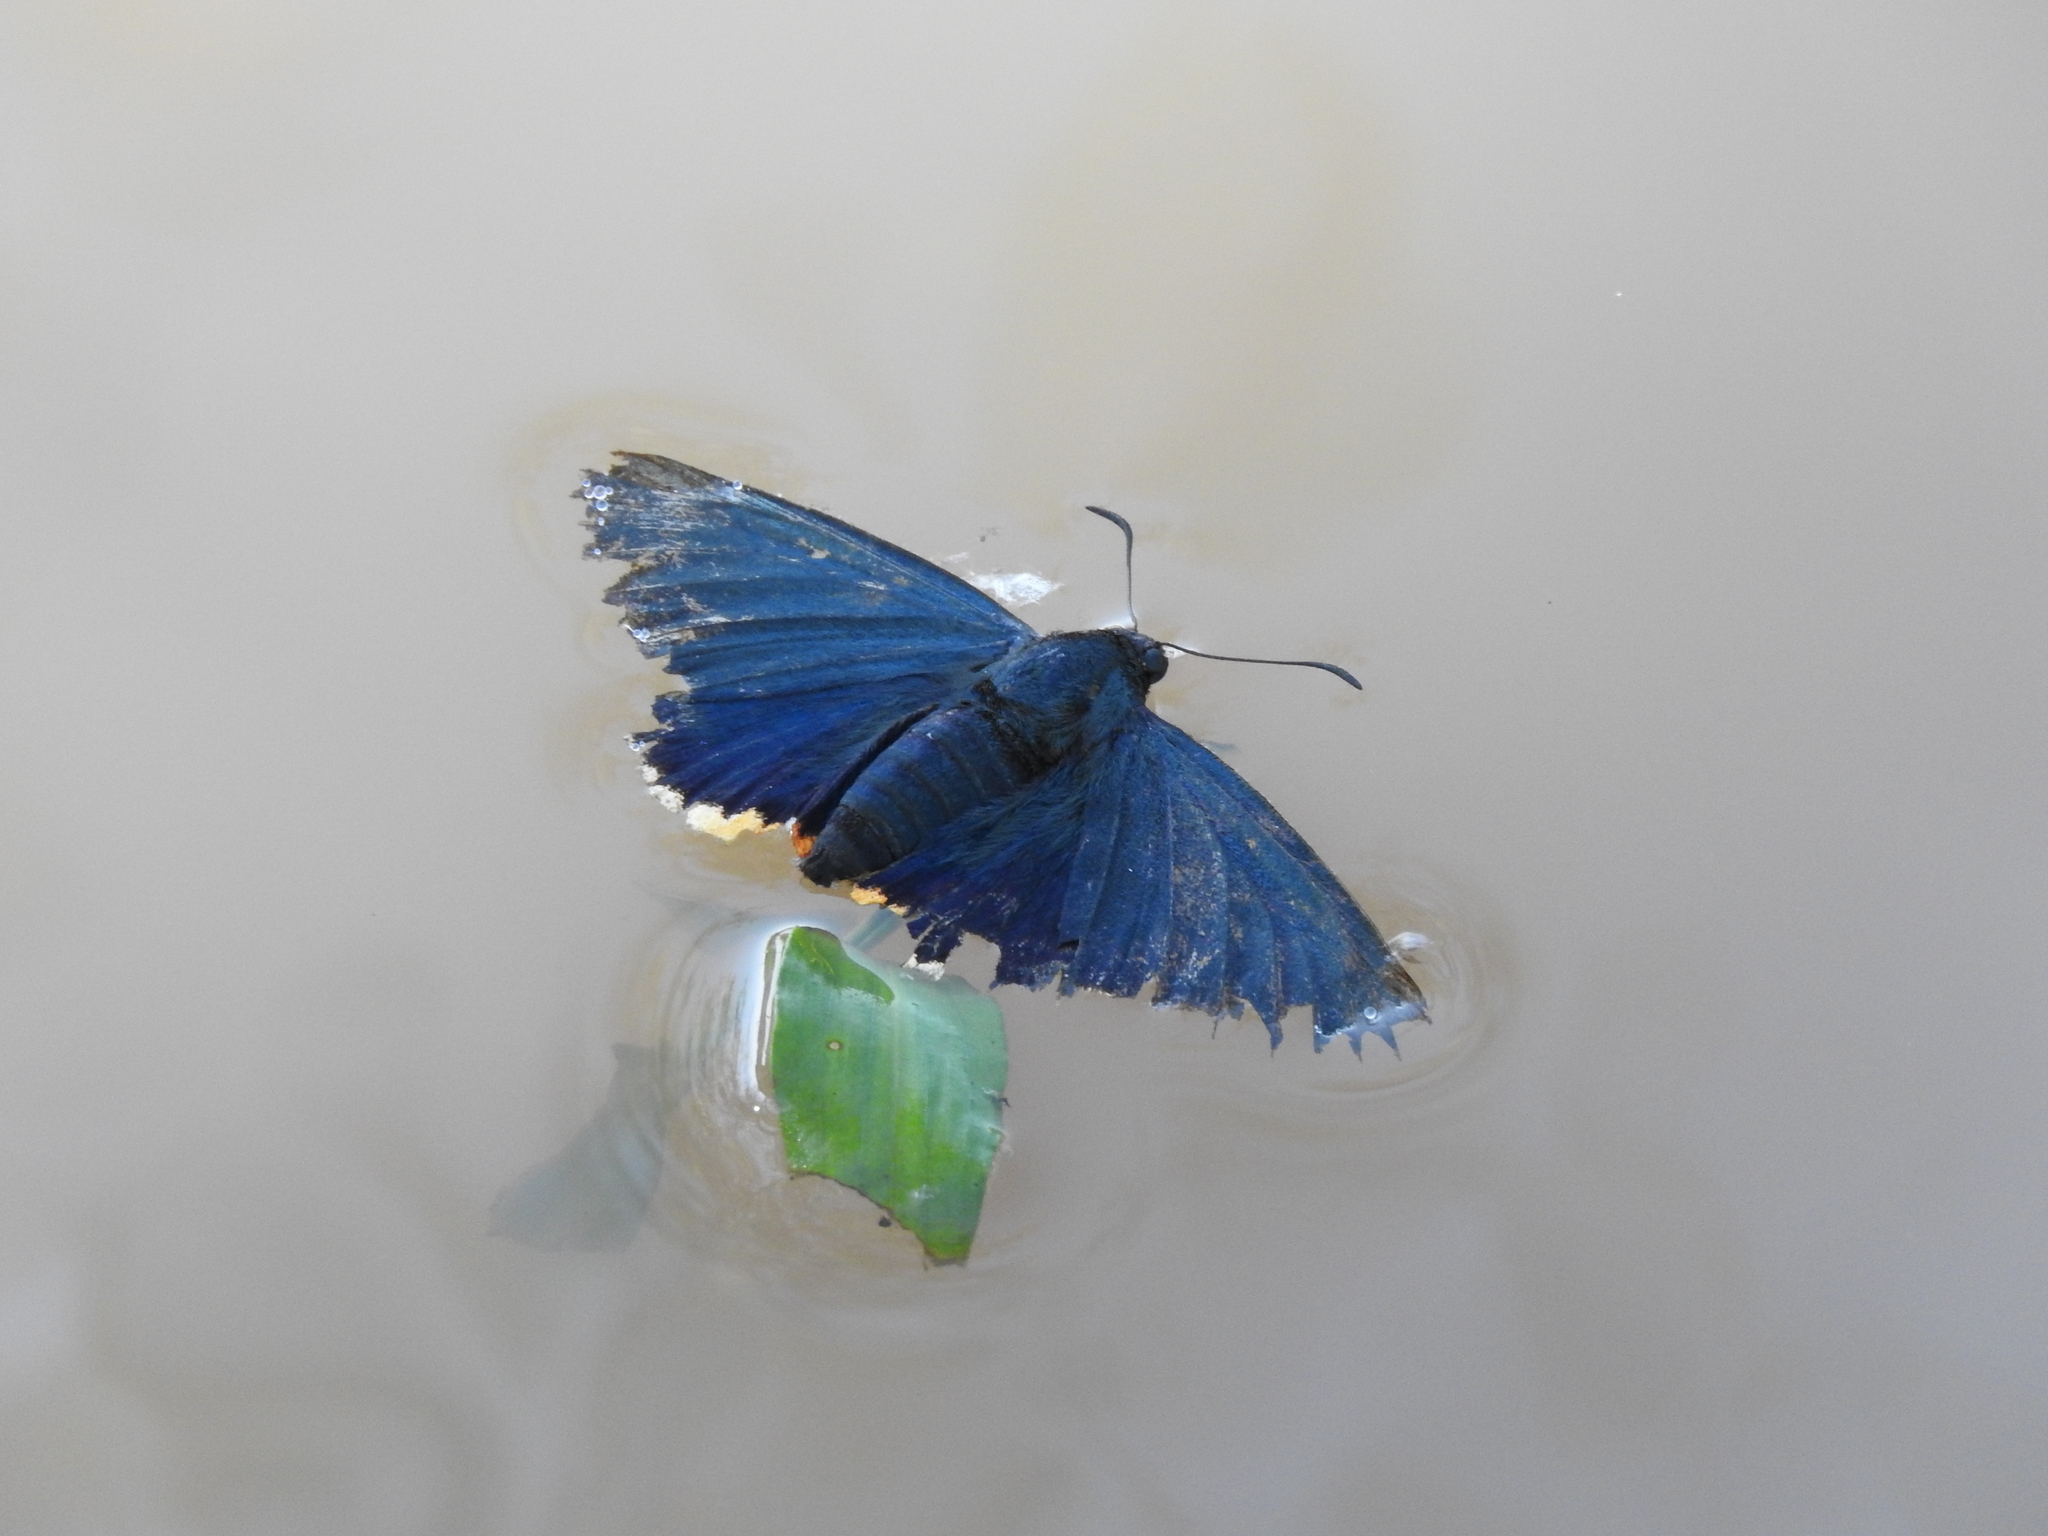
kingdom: Animalia
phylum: Arthropoda
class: Insecta
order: Lepidoptera
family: Hesperiidae
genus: Pyrrhopyge
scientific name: Pyrrhopyge Apyrrothrix chalybea
